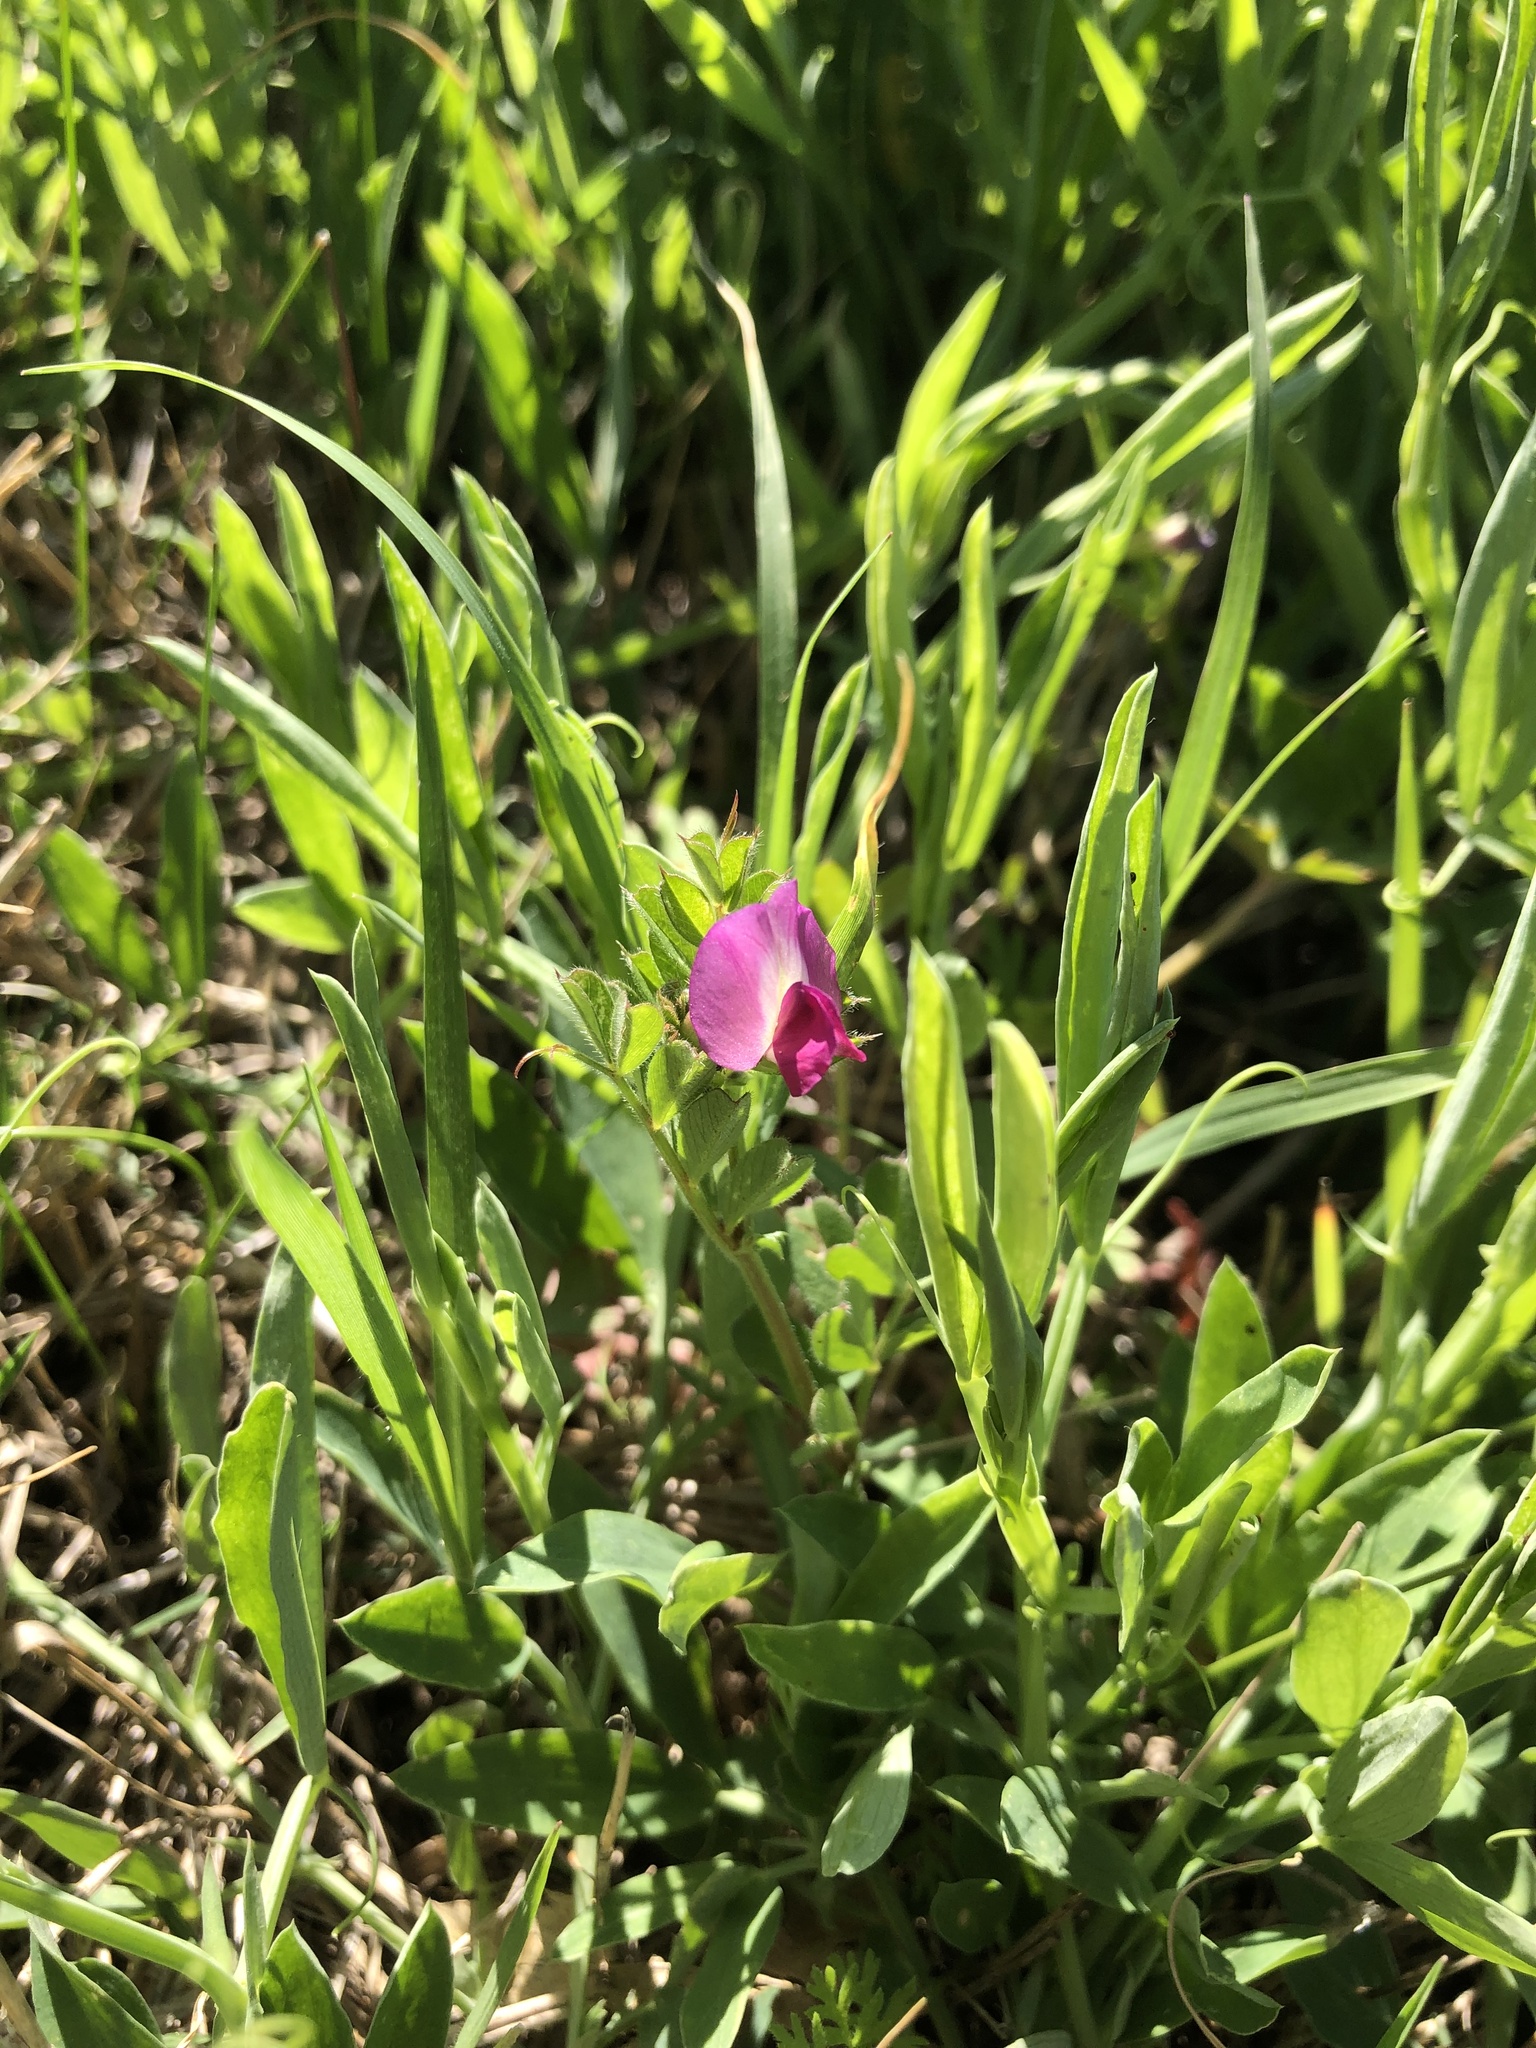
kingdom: Plantae
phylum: Tracheophyta
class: Magnoliopsida
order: Fabales
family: Fabaceae
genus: Vicia
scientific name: Vicia sativa
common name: Garden vetch
